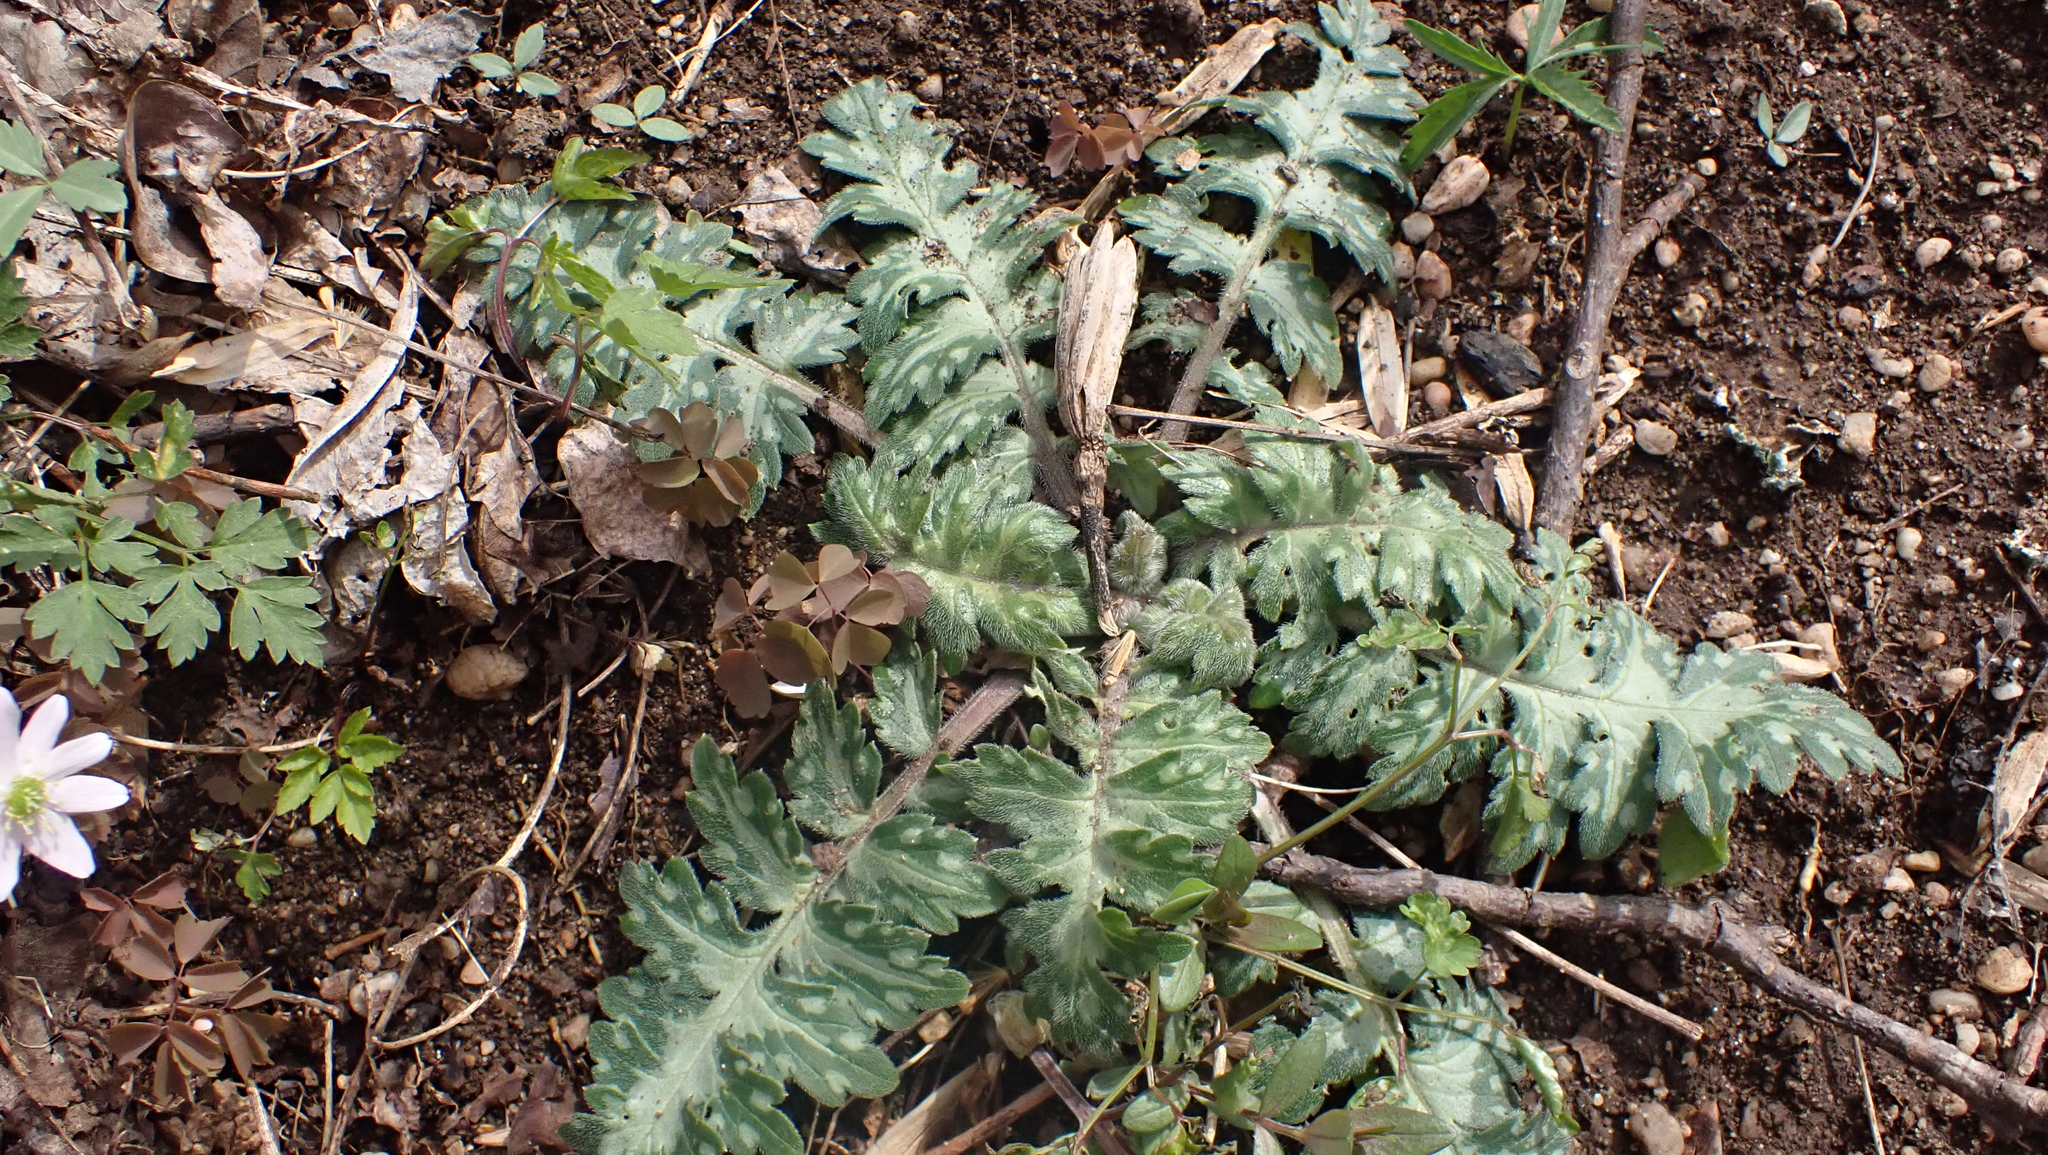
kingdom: Plantae
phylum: Tracheophyta
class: Magnoliopsida
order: Boraginales
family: Hydrophyllaceae
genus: Hydrophyllum
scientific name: Hydrophyllum macrophyllum
